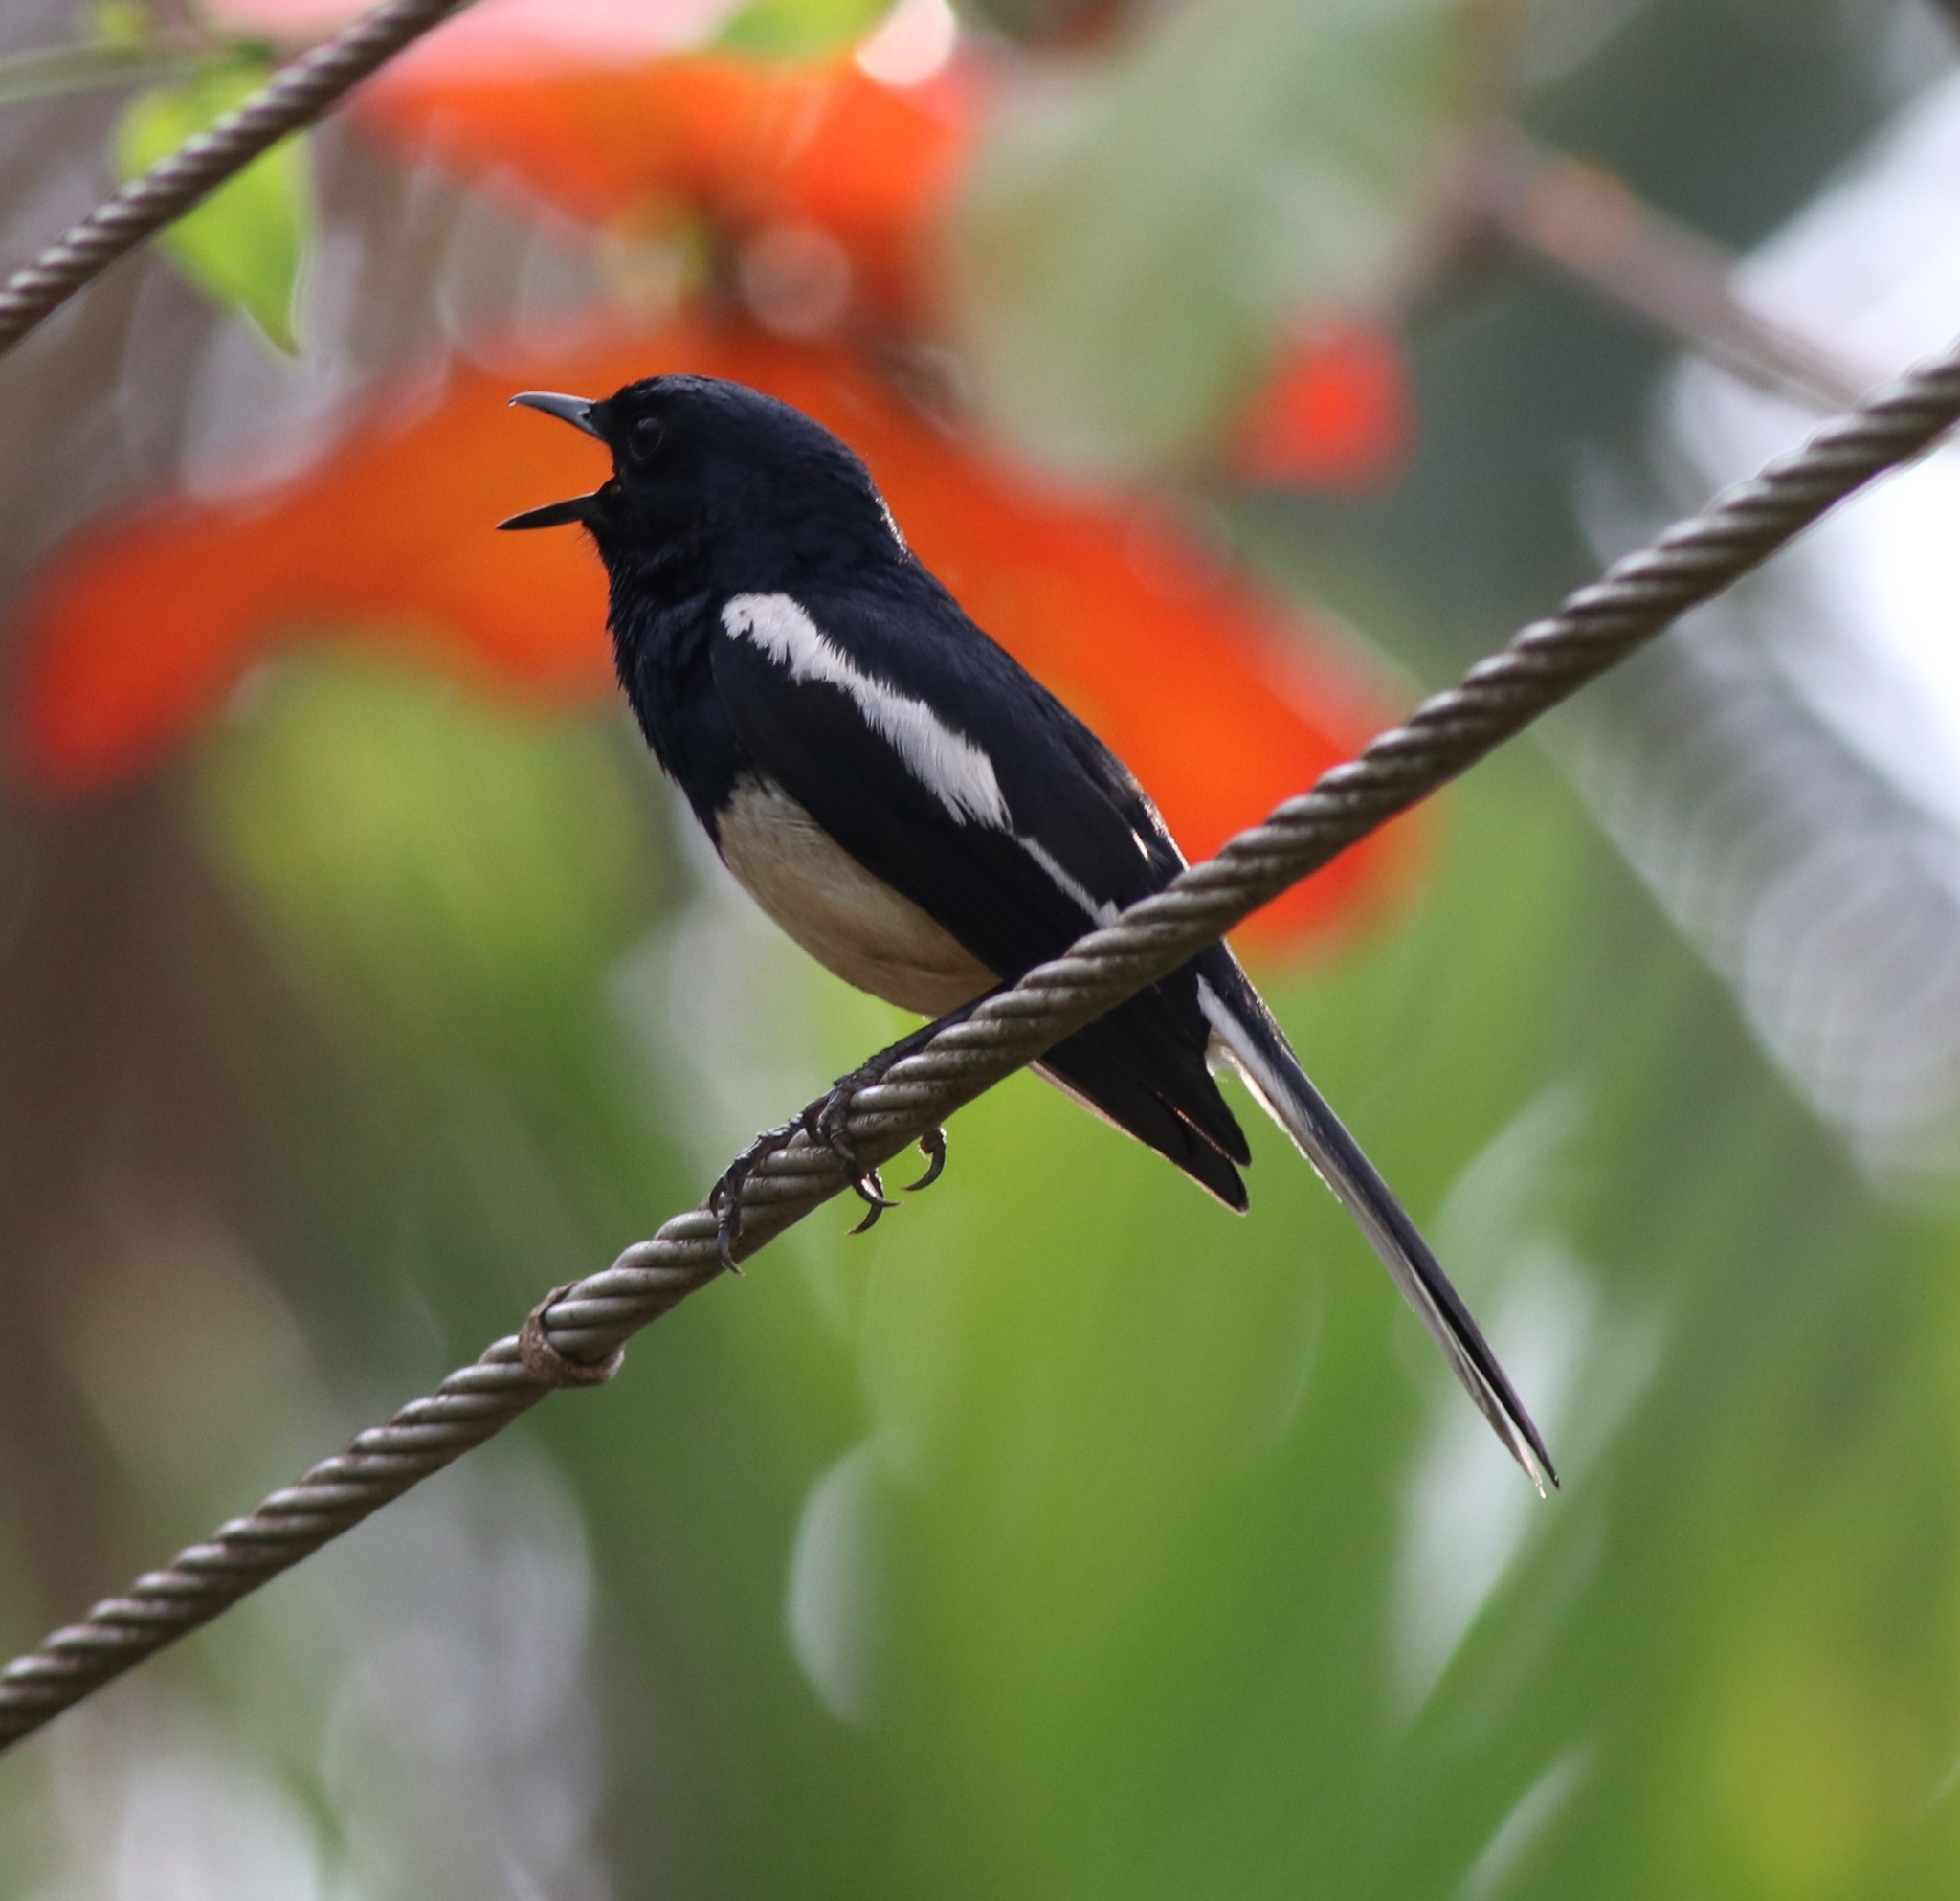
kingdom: Animalia
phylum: Chordata
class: Aves
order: Passeriformes
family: Muscicapidae
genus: Copsychus
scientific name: Copsychus saularis
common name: Oriental magpie-robin
